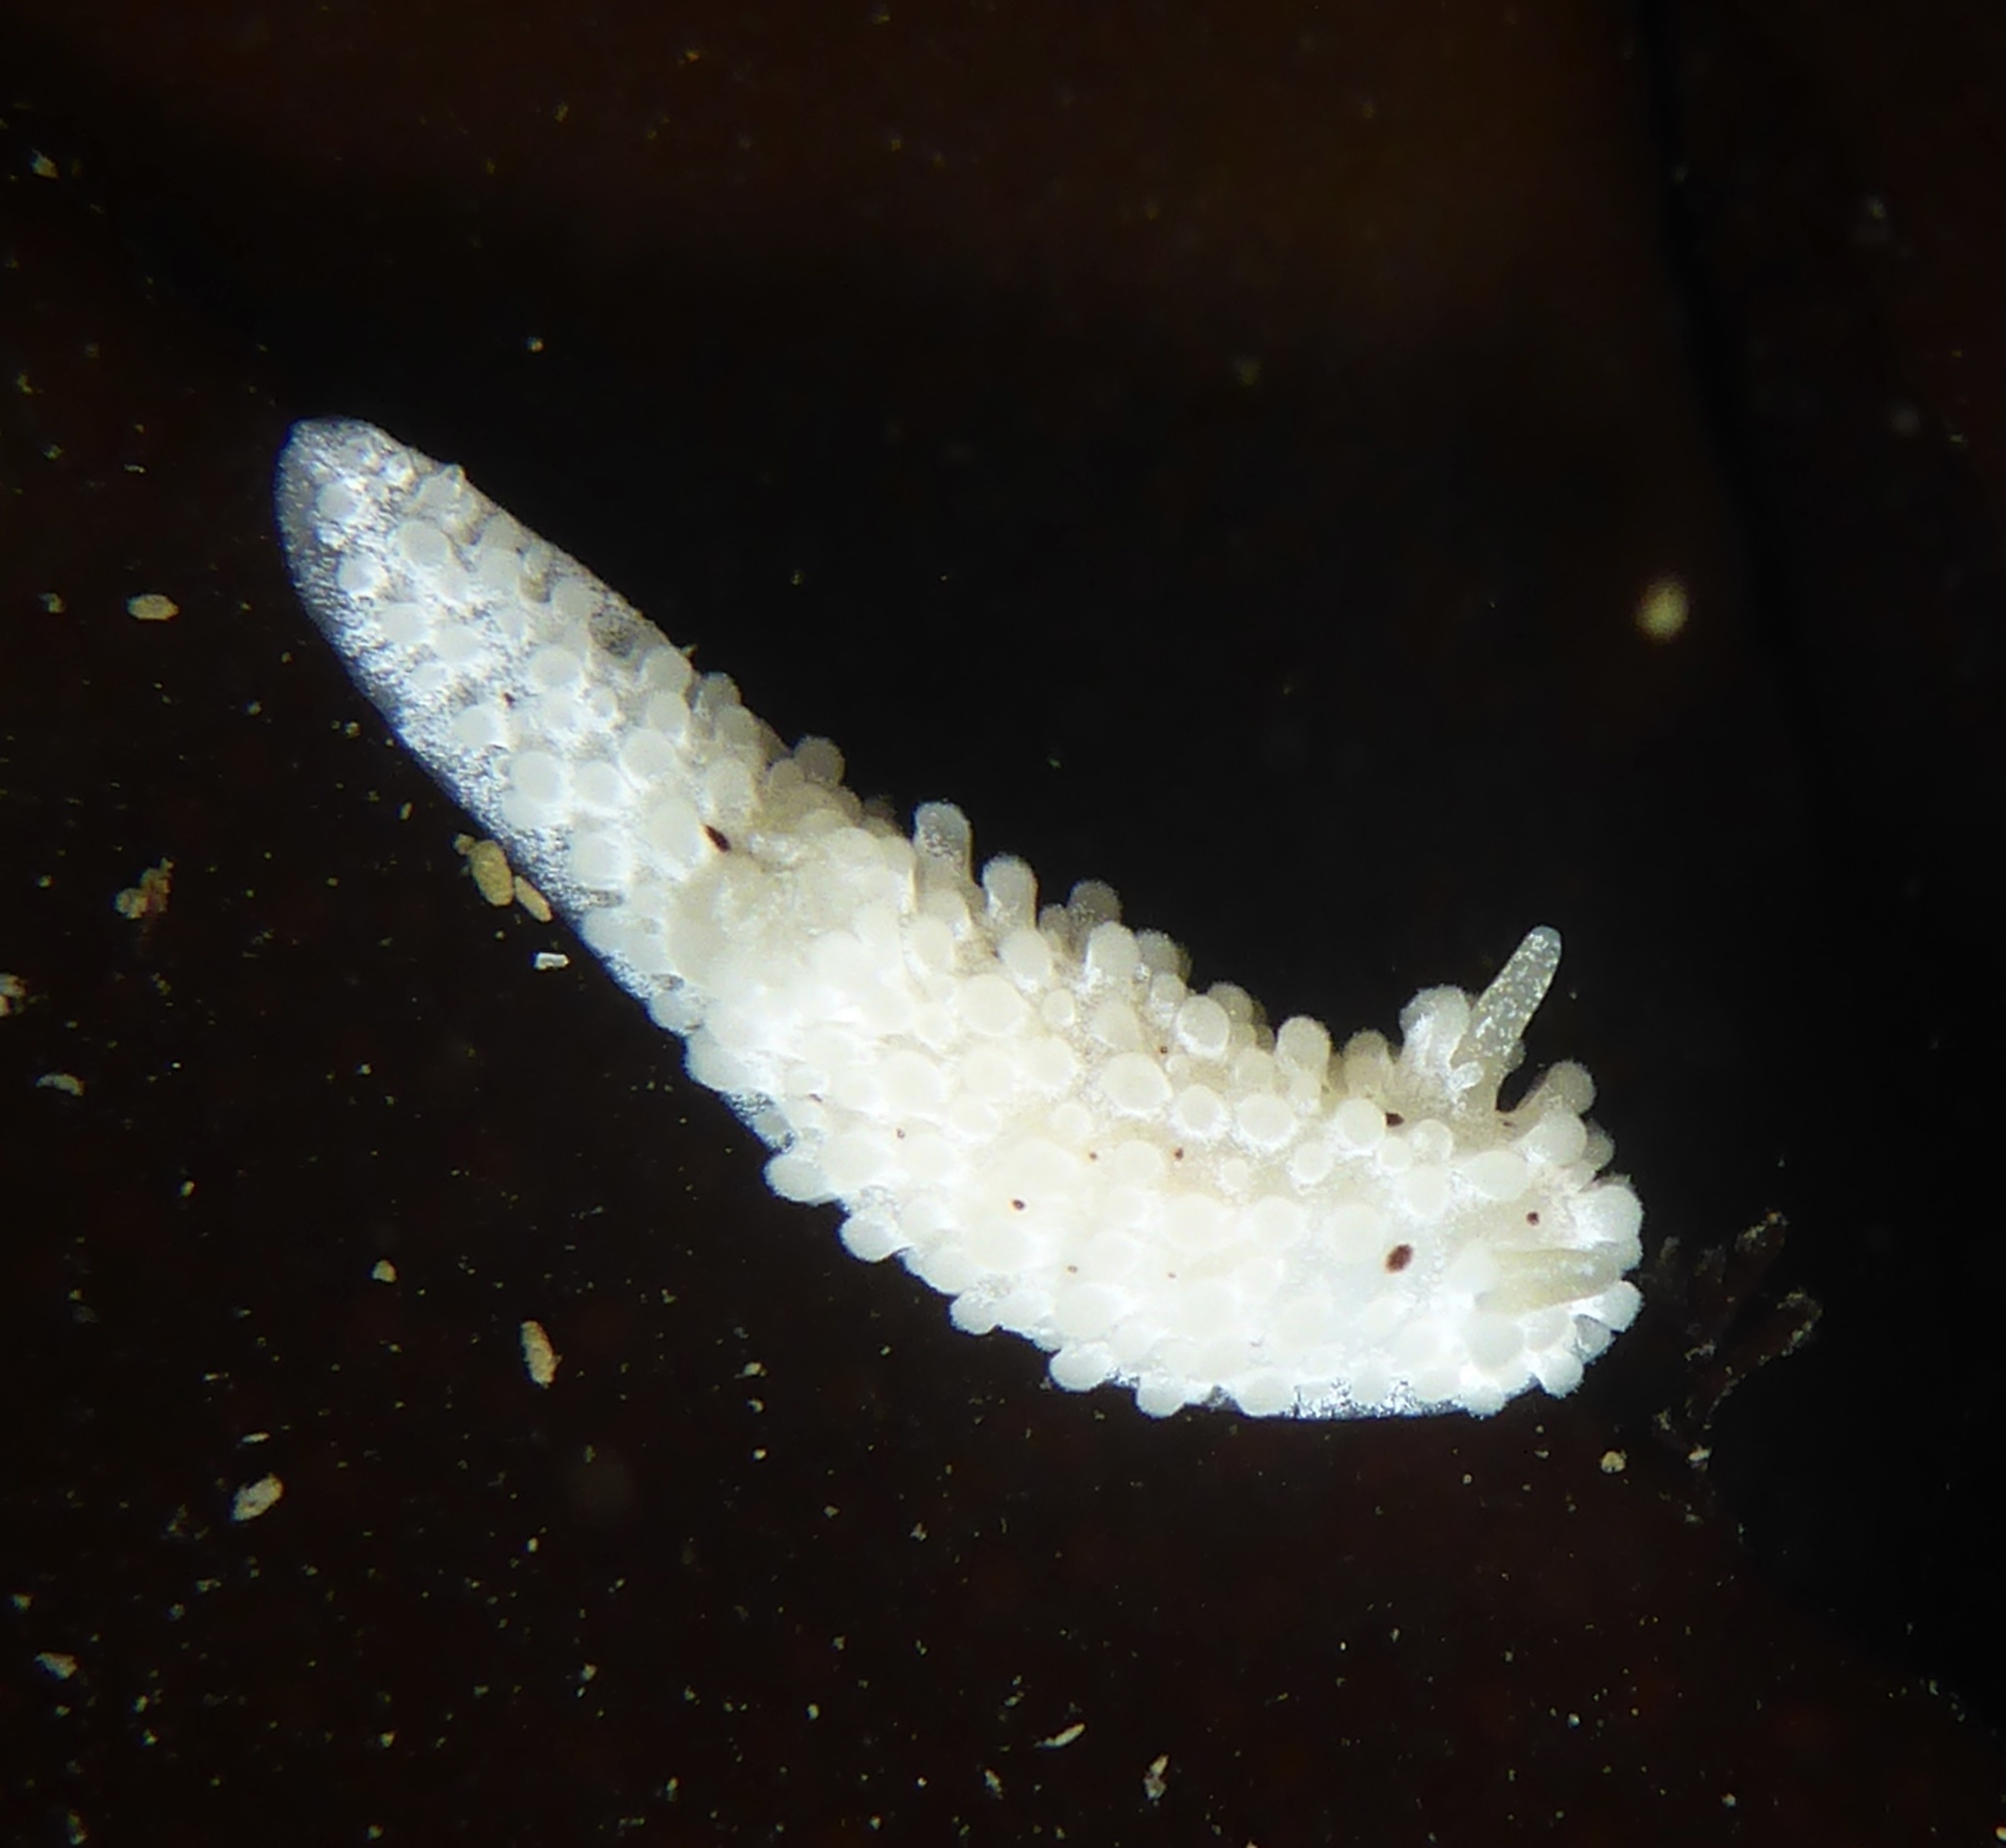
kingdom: Animalia
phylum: Mollusca
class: Gastropoda
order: Nudibranchia
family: Aegiridae
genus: Aegires
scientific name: Aegires albopunctatus
